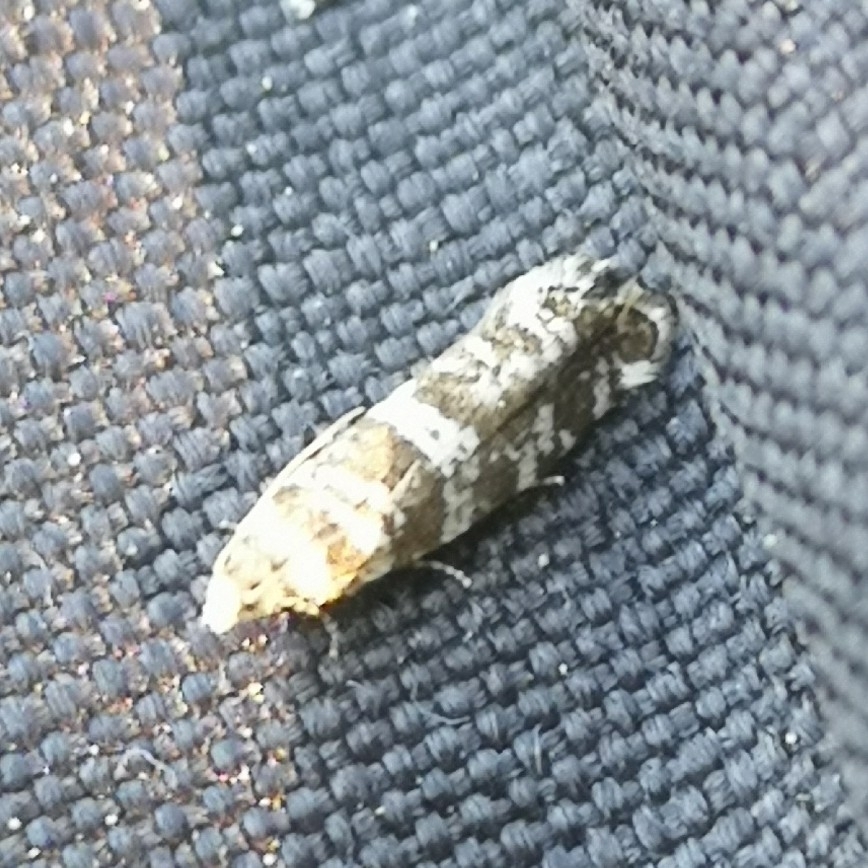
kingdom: Animalia
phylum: Arthropoda
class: Insecta
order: Lepidoptera
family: Tortricidae
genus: Epinotia
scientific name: Epinotia tedella
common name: Common spruce bell
